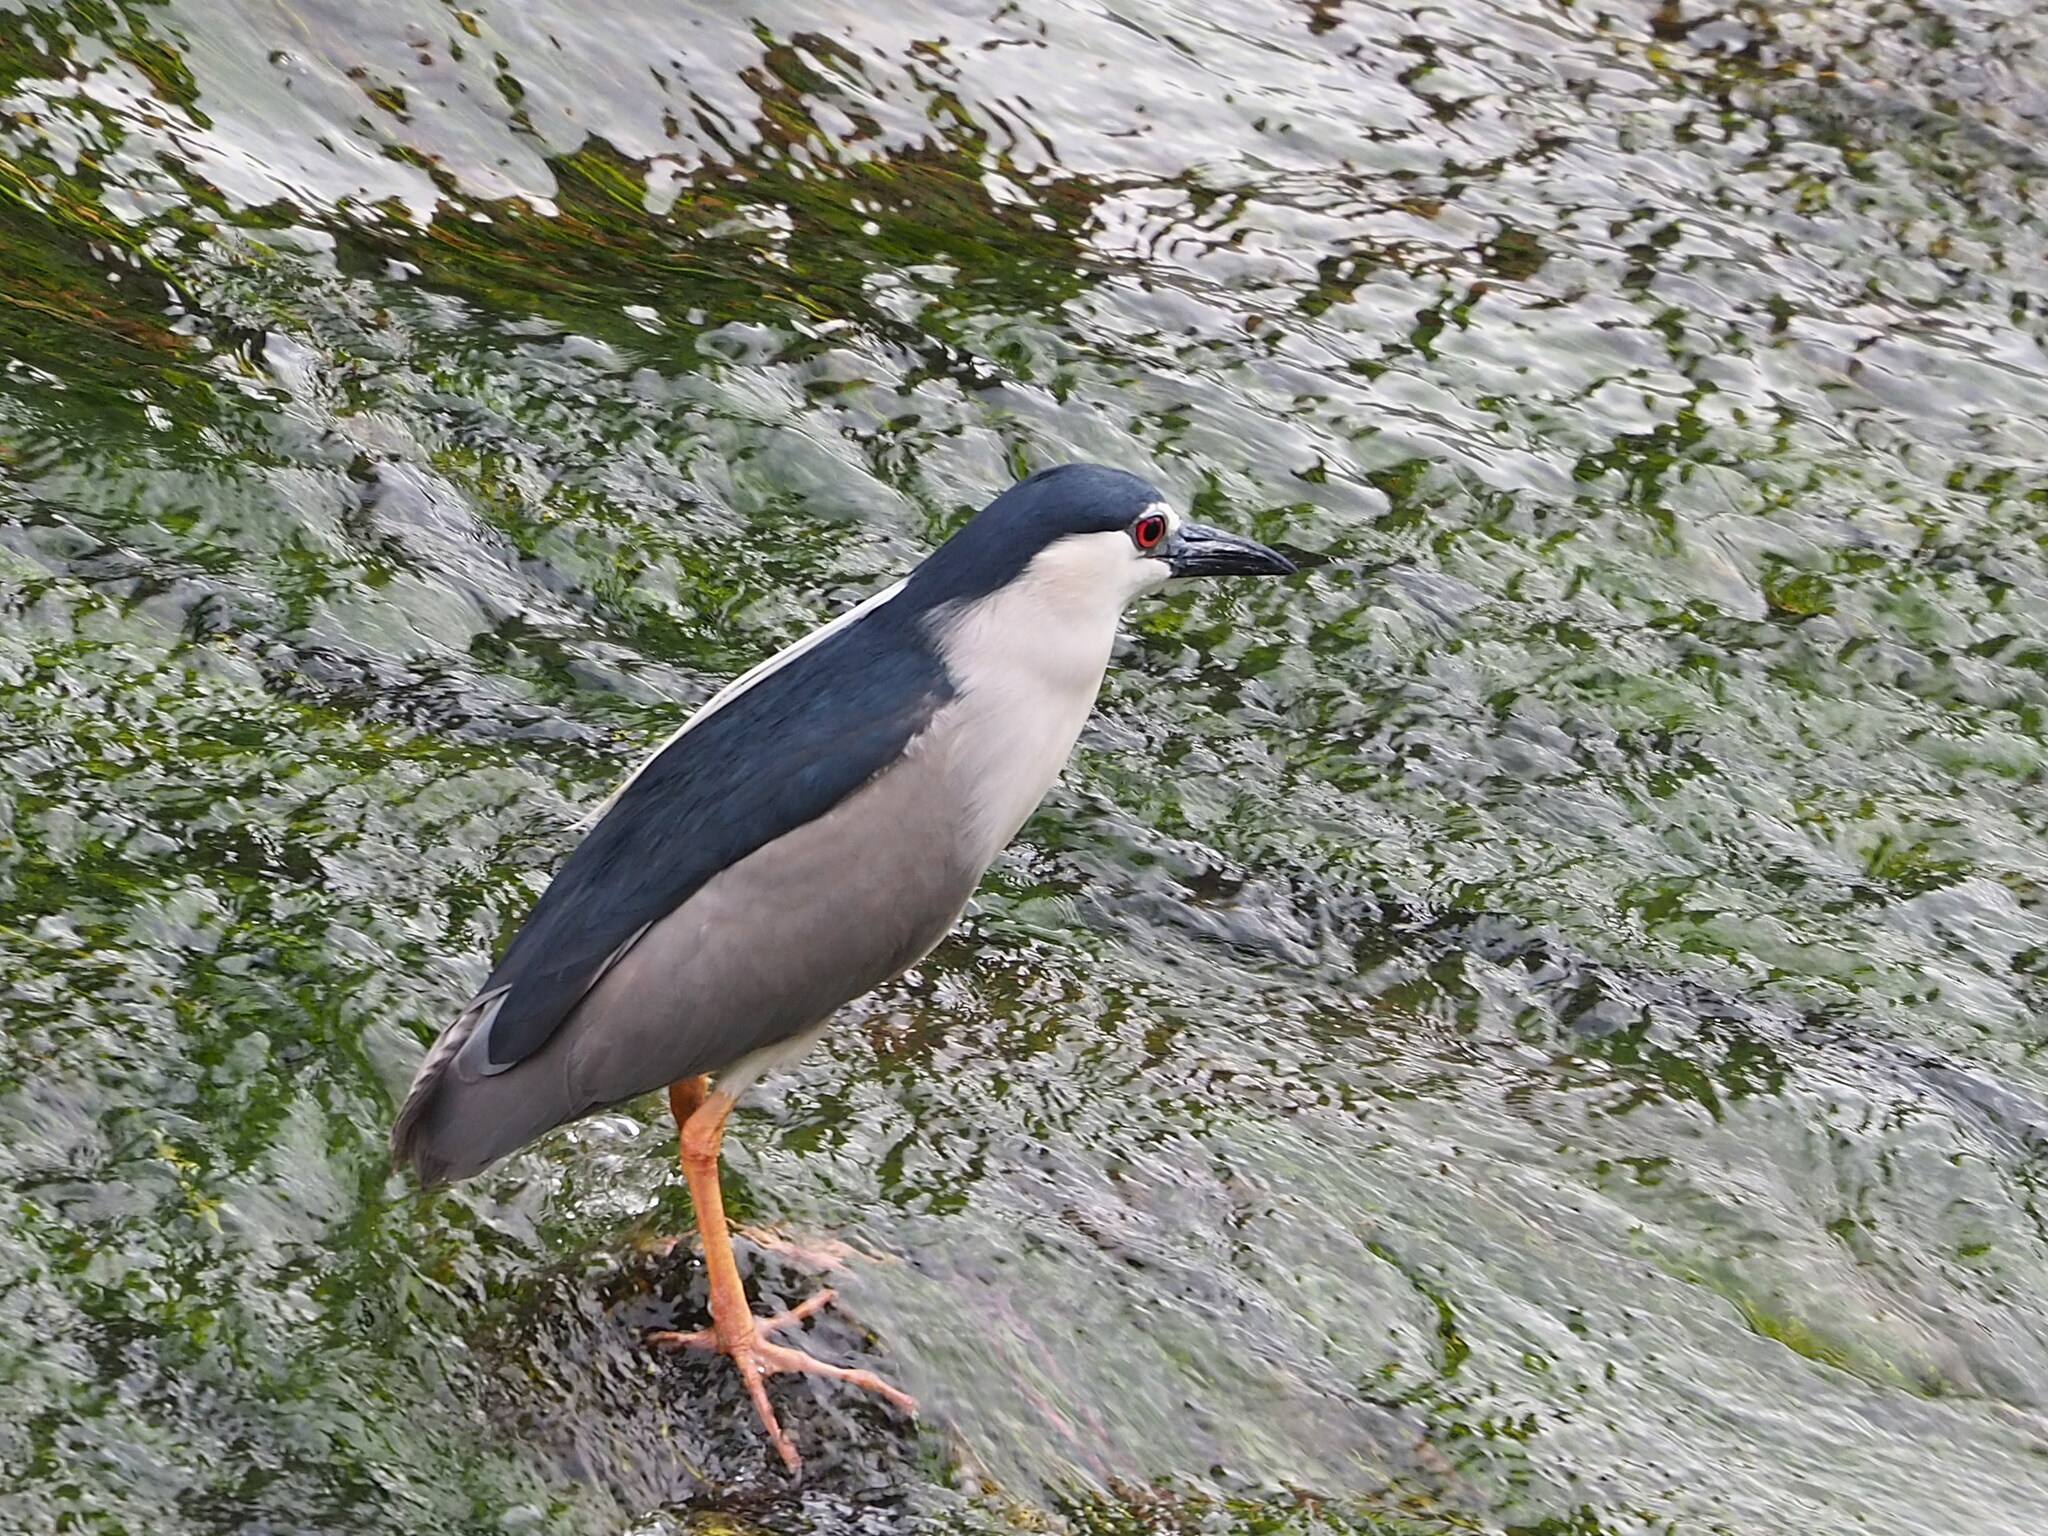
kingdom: Animalia
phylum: Chordata
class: Aves
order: Pelecaniformes
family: Ardeidae
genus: Nycticorax
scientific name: Nycticorax nycticorax
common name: Black-crowned night heron
